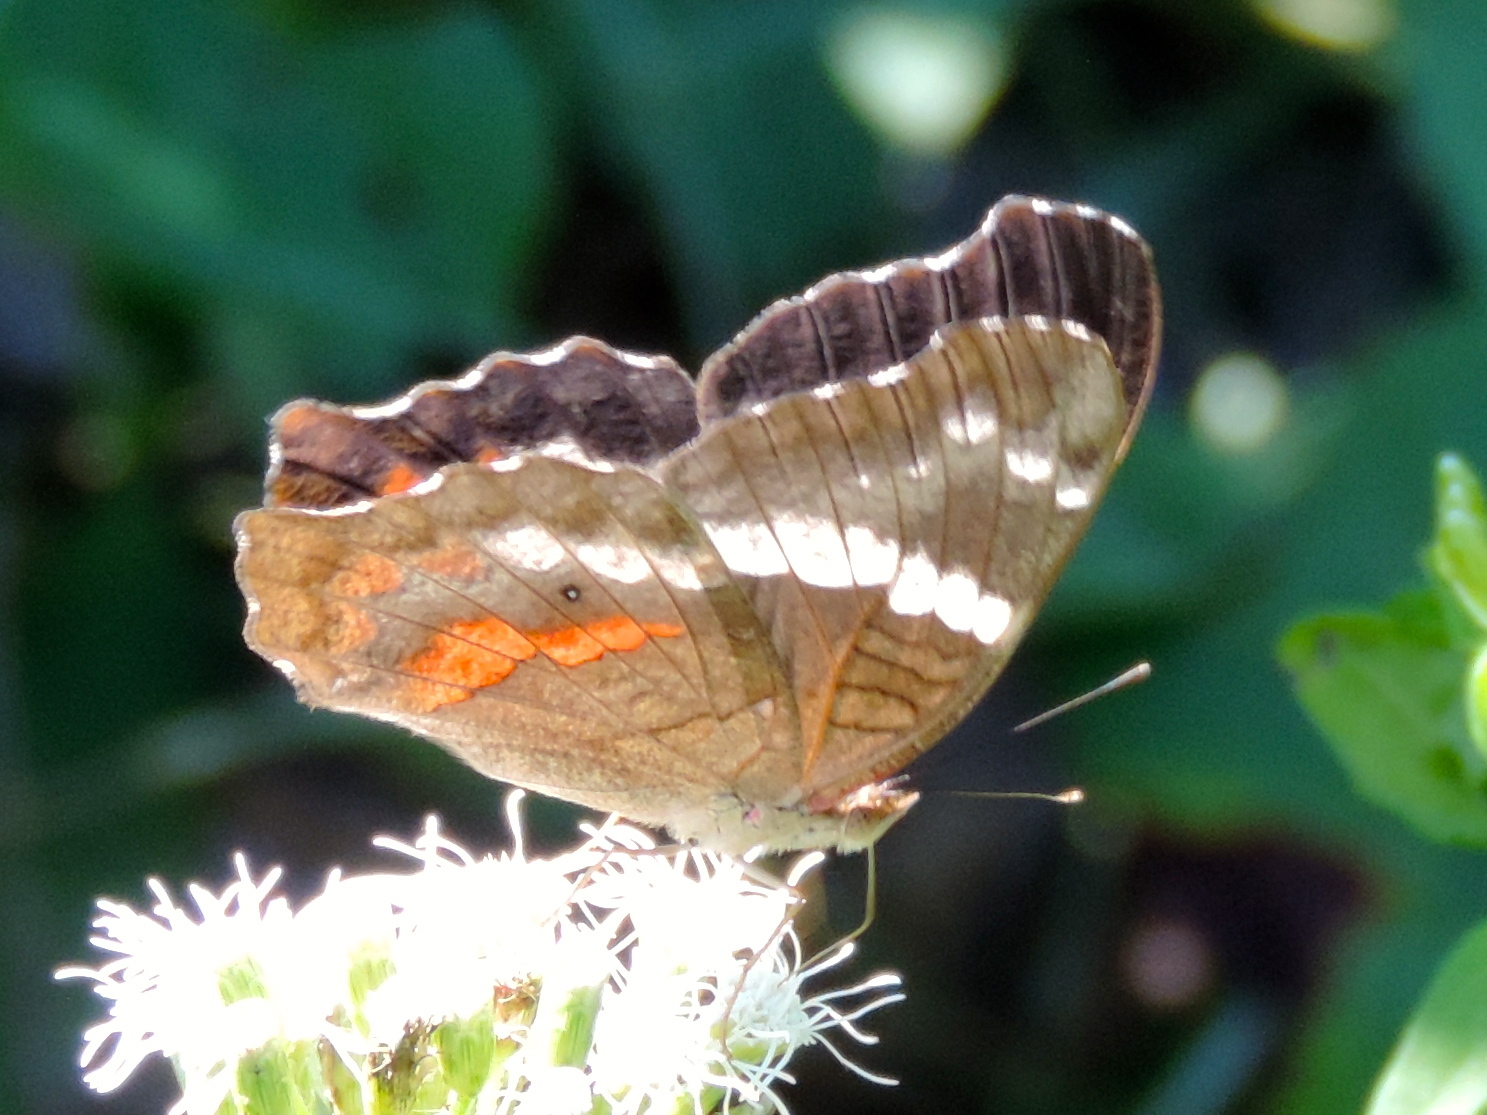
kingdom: Animalia
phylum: Arthropoda
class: Insecta
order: Lepidoptera
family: Nymphalidae
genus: Anartia
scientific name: Anartia fatima
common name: Banded peacock
